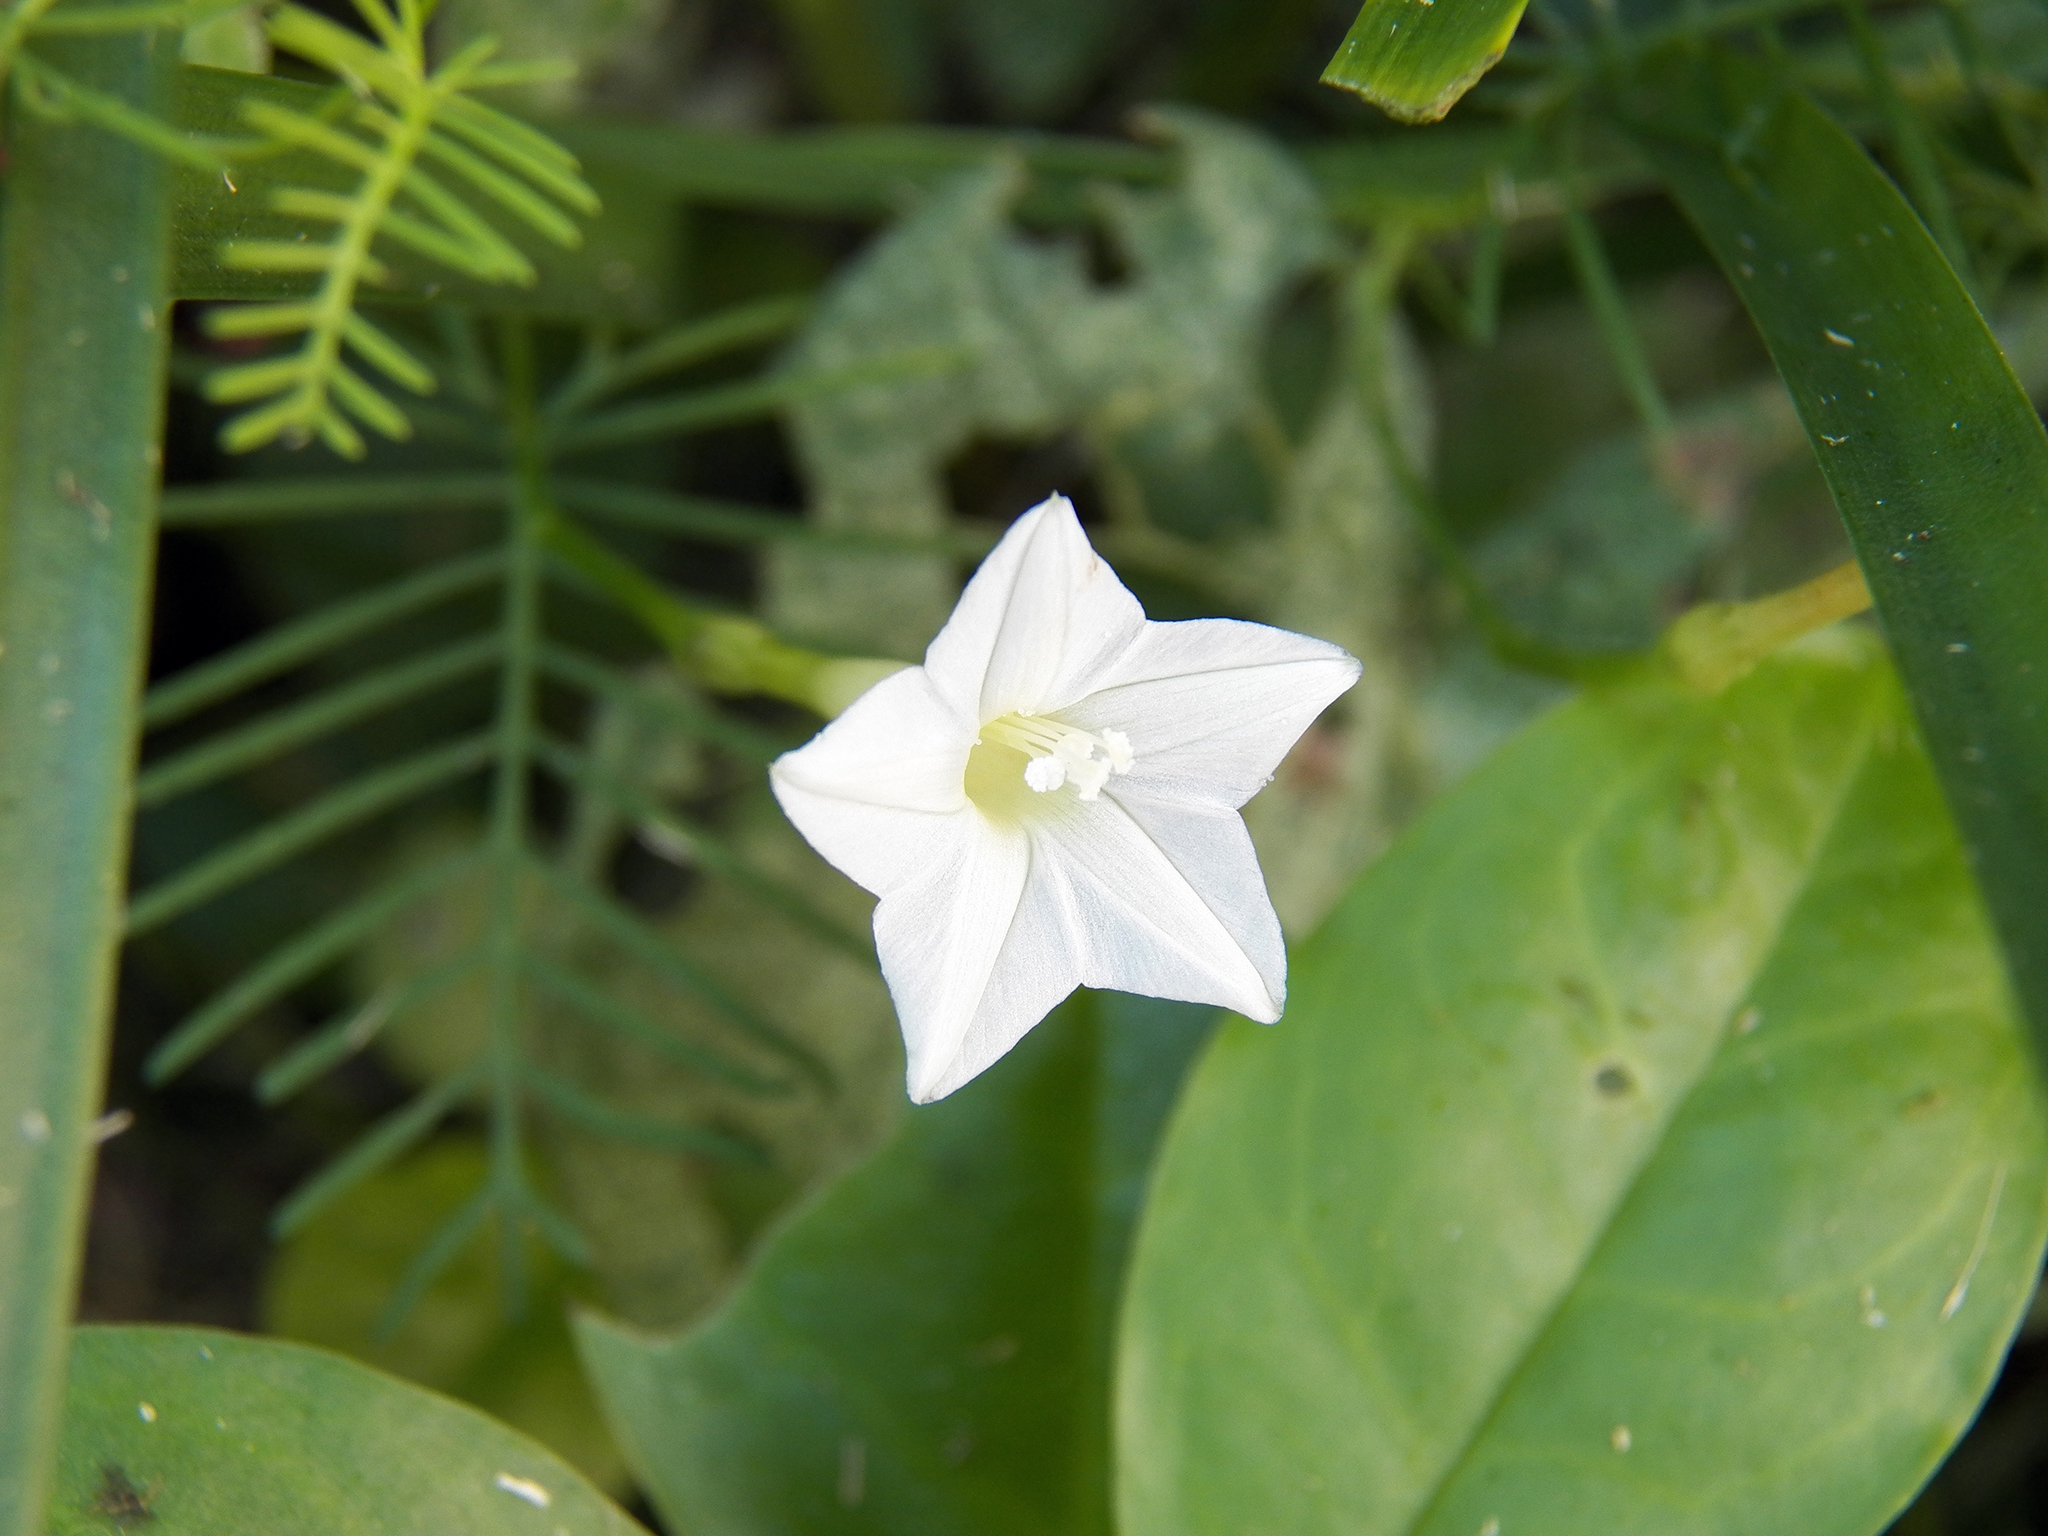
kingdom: Plantae
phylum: Tracheophyta
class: Magnoliopsida
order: Solanales
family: Convolvulaceae
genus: Ipomoea
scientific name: Ipomoea quamoclit
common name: Cypress vine
